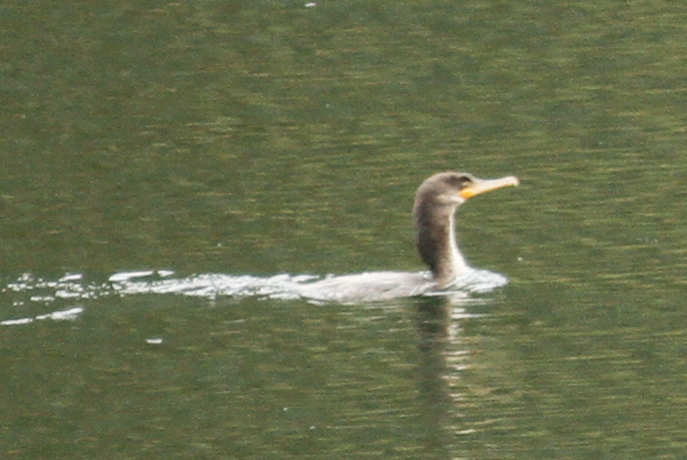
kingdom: Animalia
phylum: Chordata
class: Aves
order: Suliformes
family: Phalacrocoracidae
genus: Phalacrocorax
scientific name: Phalacrocorax brasilianus
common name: Neotropic cormorant
